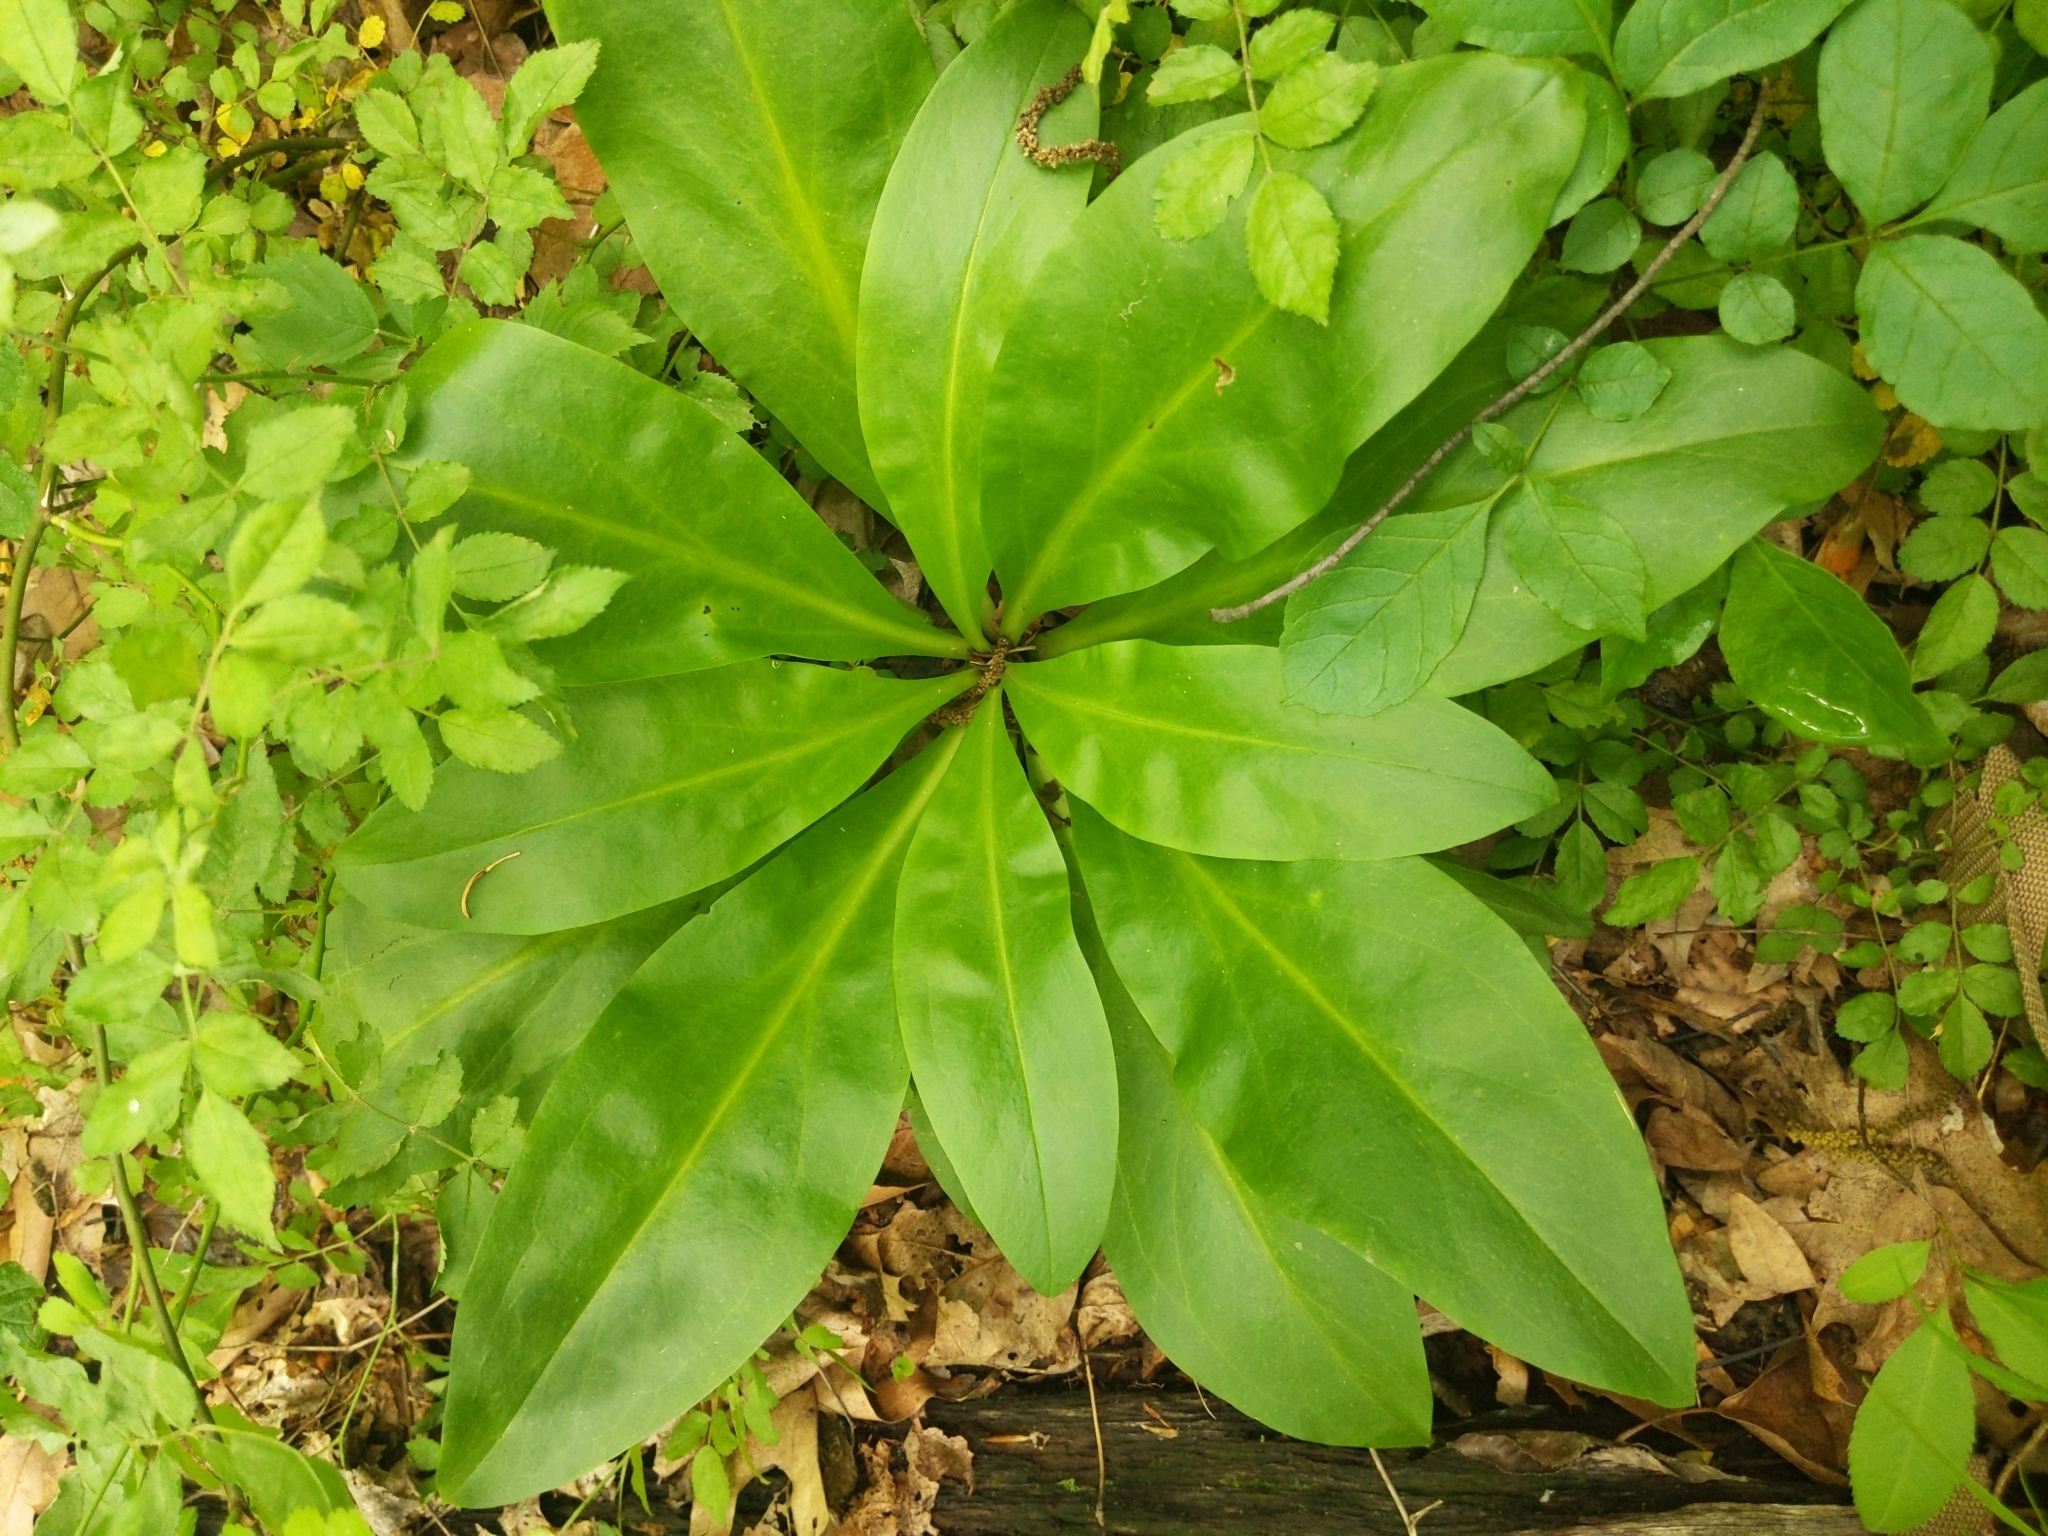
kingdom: Plantae
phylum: Tracheophyta
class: Magnoliopsida
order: Gentianales
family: Gentianaceae
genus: Frasera
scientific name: Frasera caroliniensis
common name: American columbo
